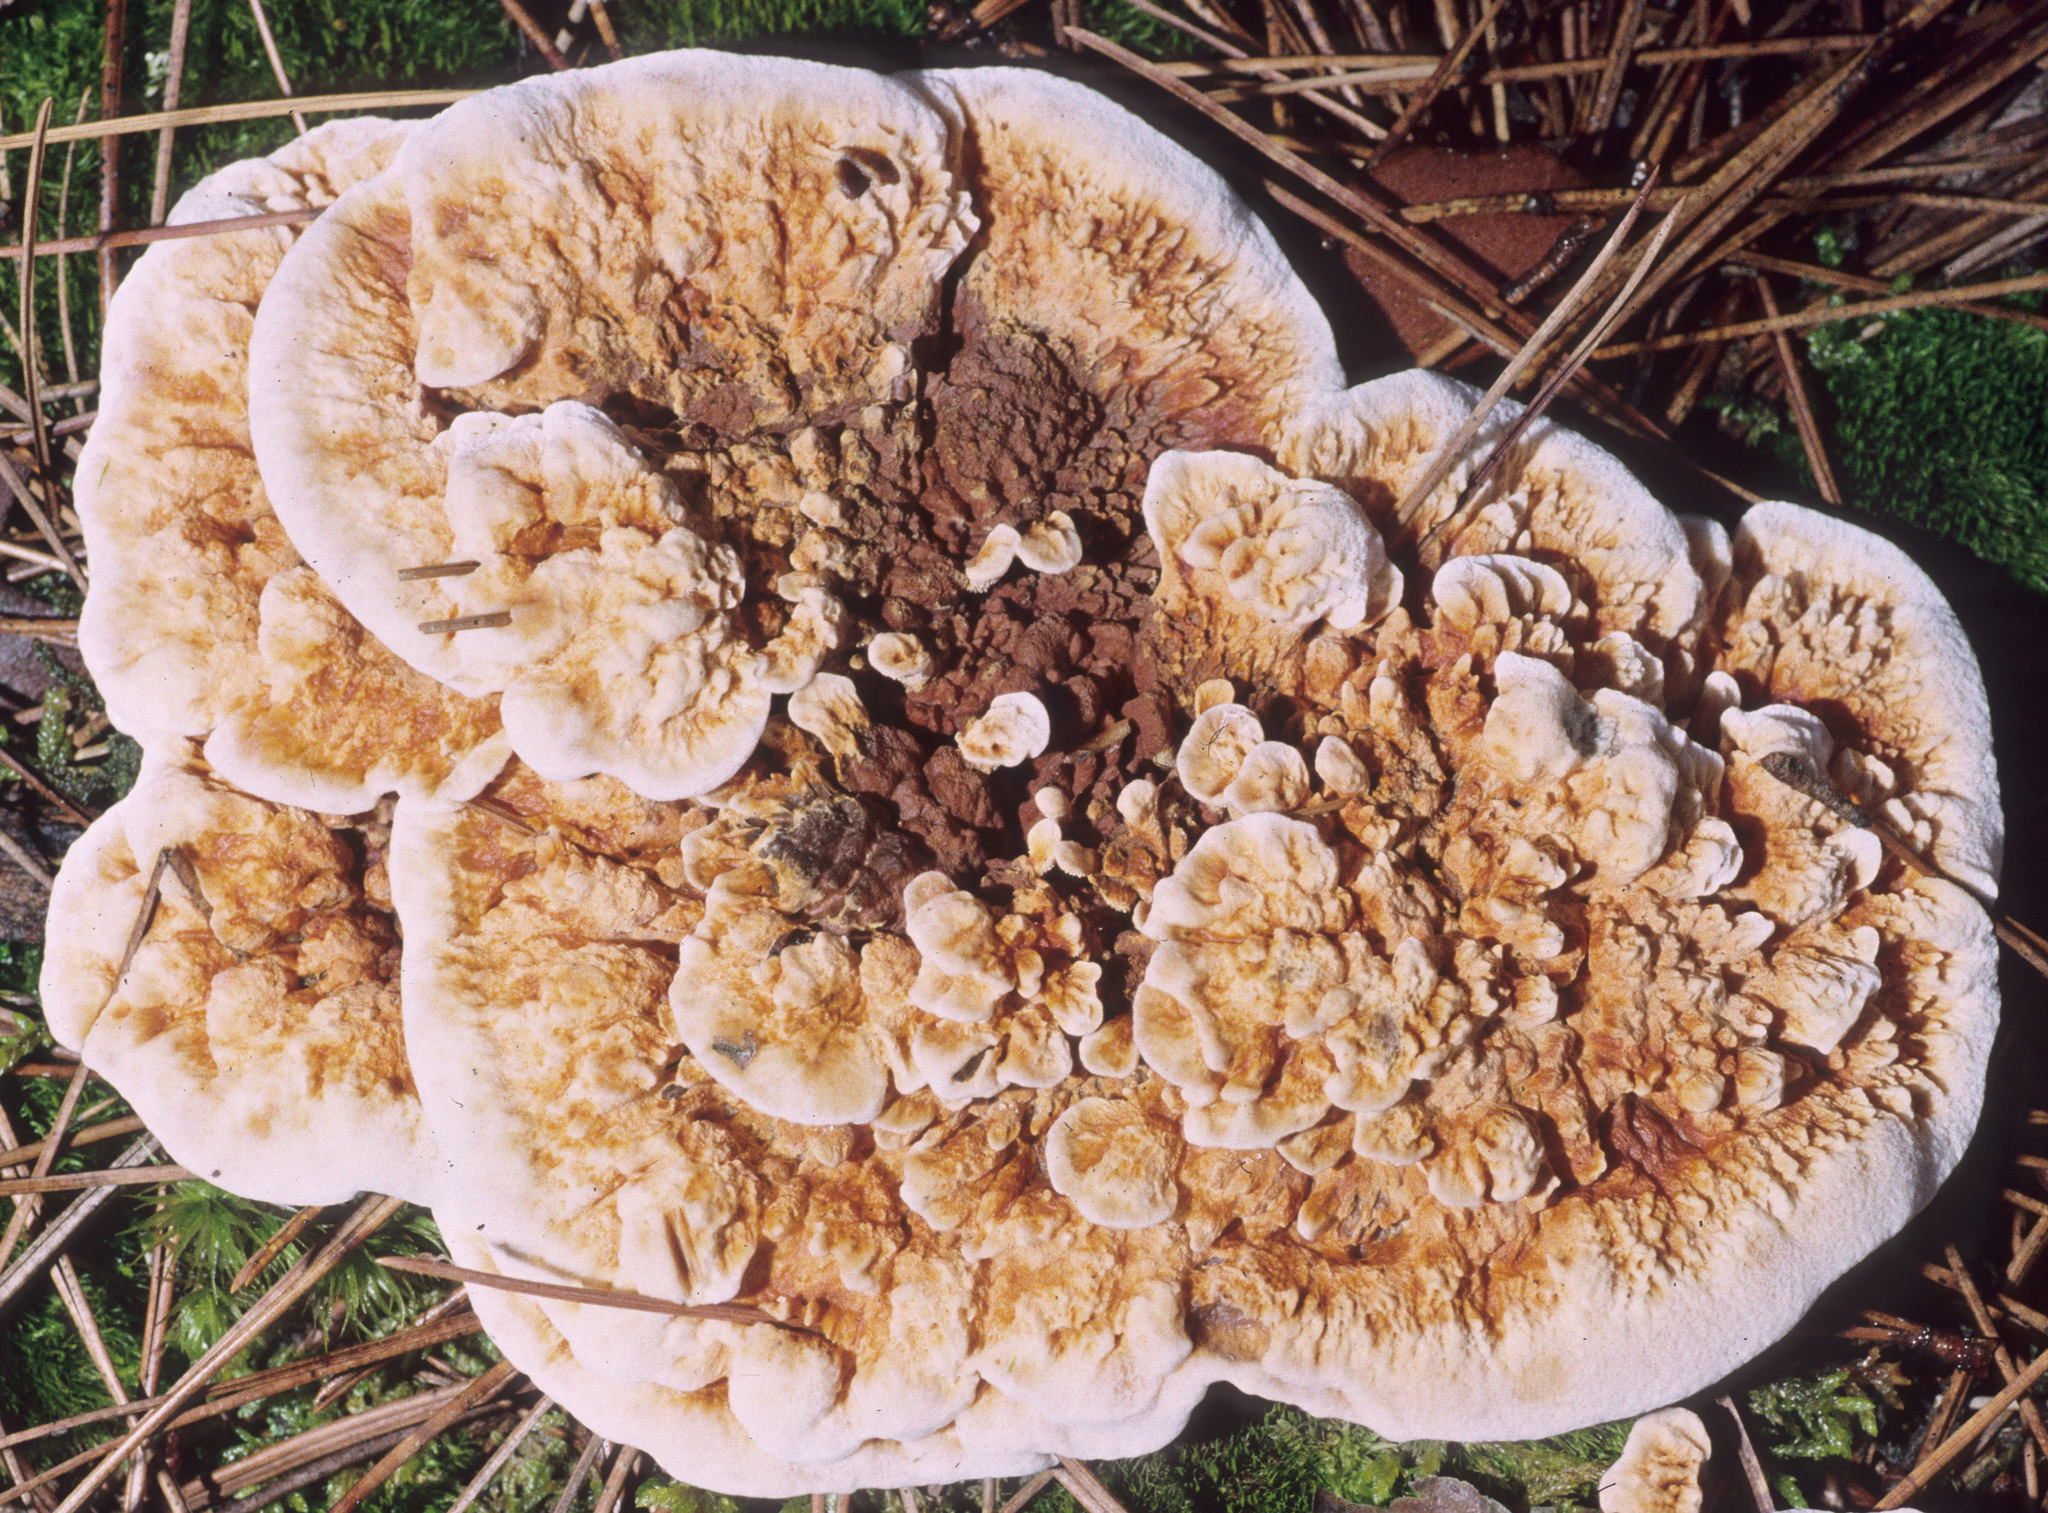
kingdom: Fungi
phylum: Basidiomycota
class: Agaricomycetes
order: Thelephorales
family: Bankeraceae
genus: Hydnellum
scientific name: Hydnellum aurantiacum
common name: Orange tooth
